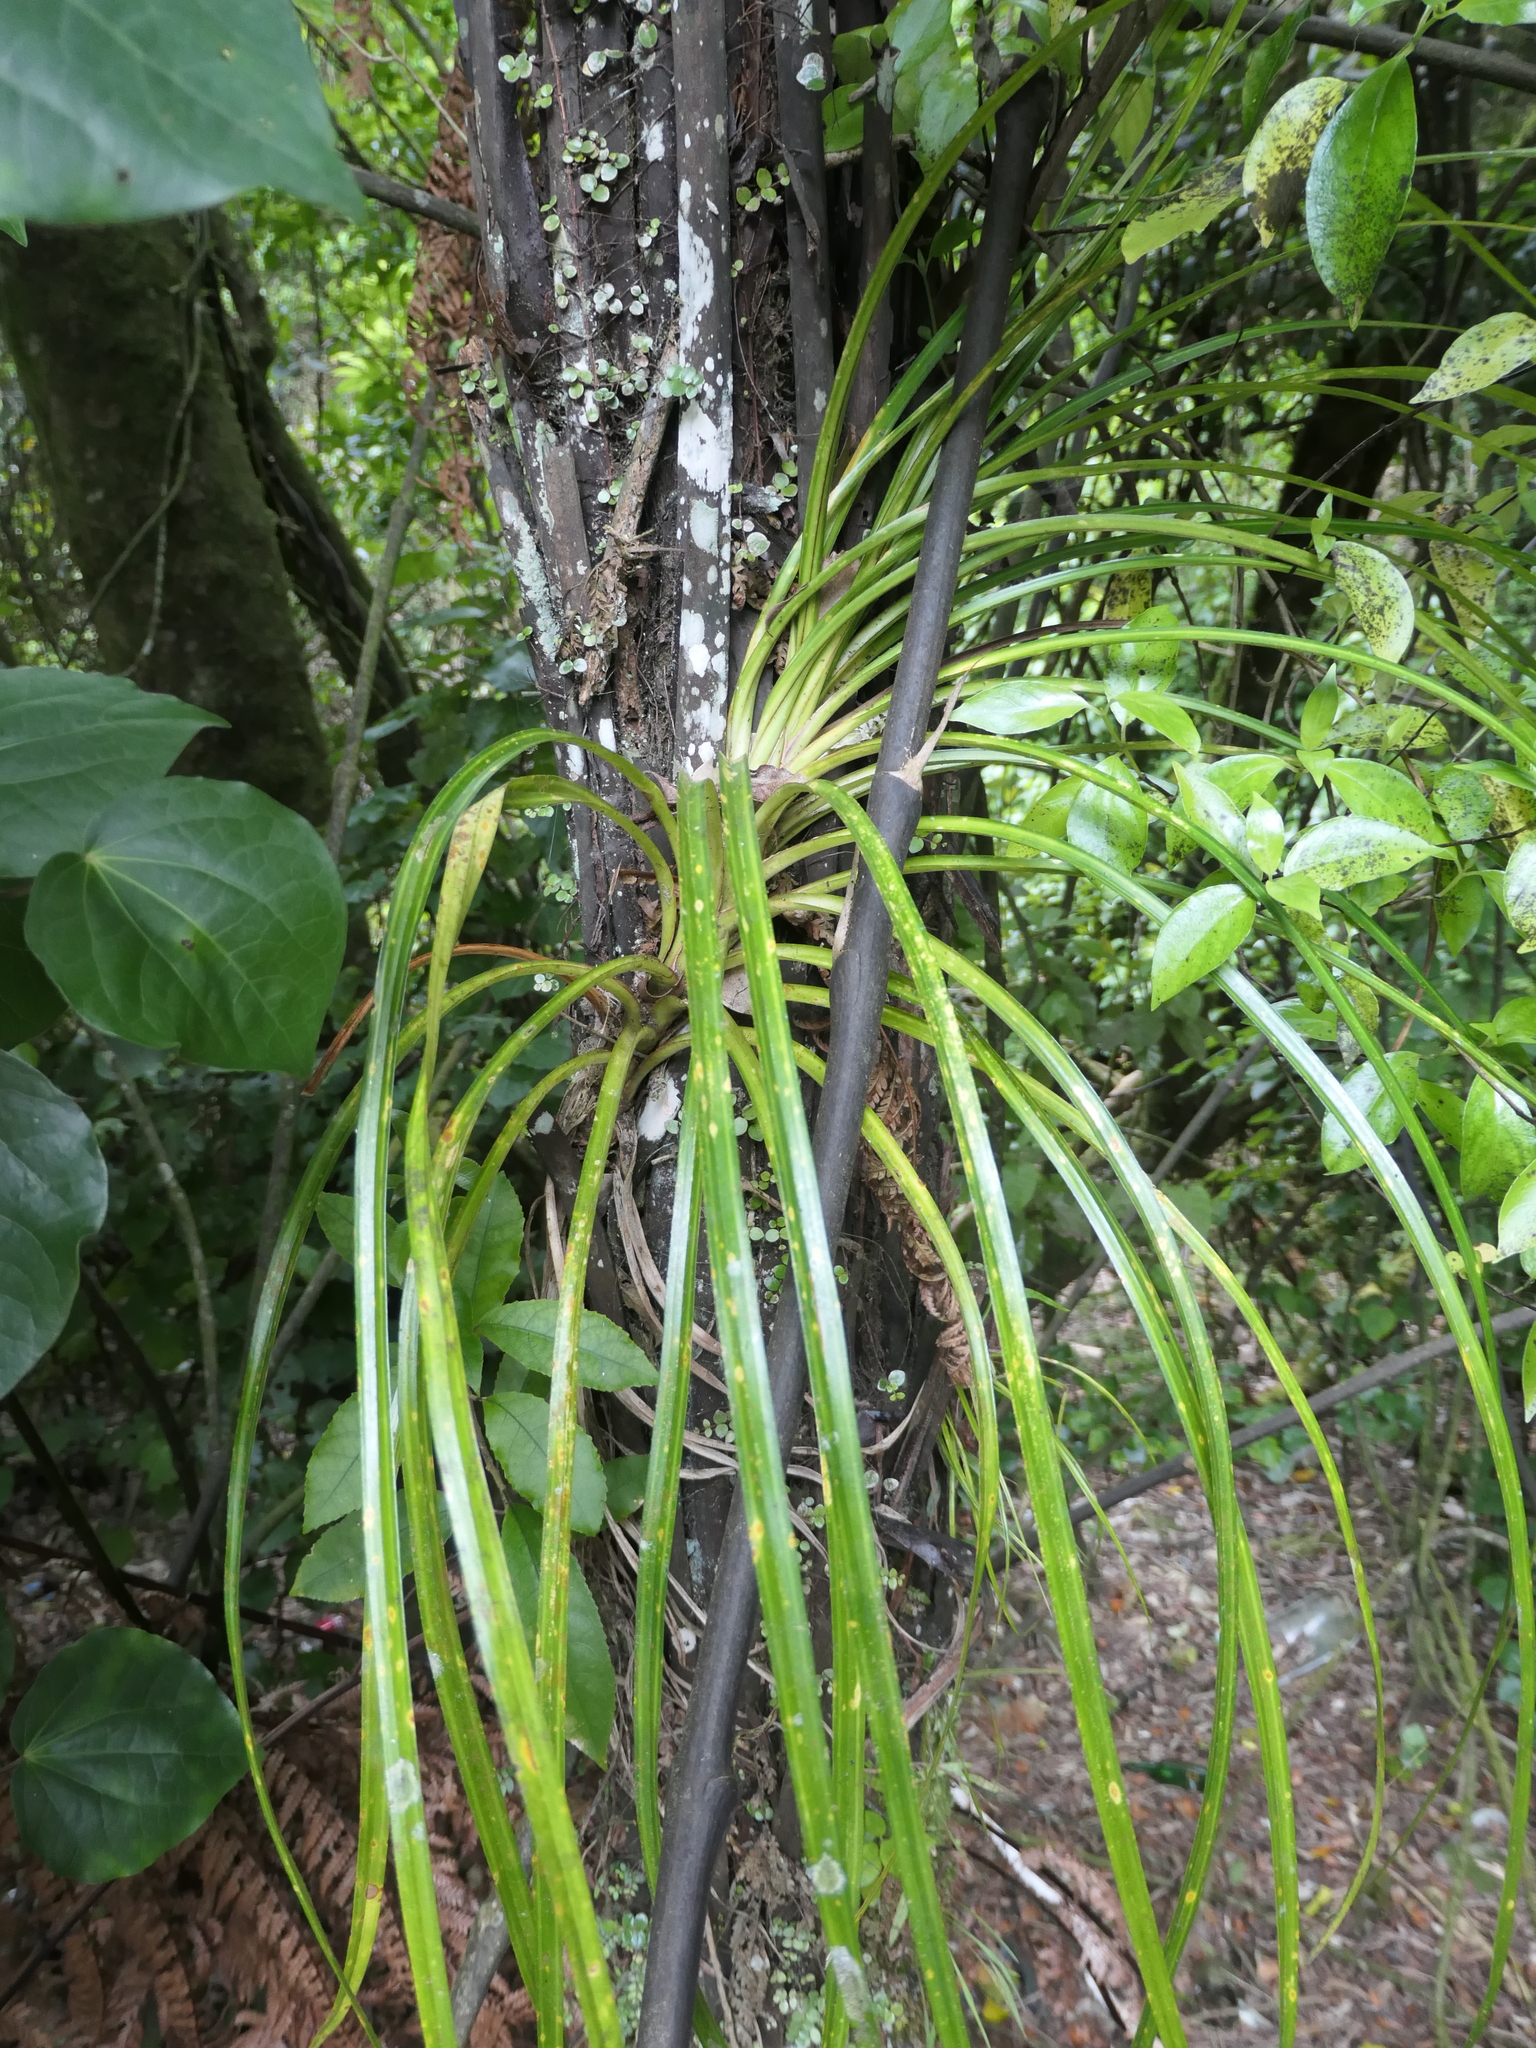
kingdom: Plantae
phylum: Tracheophyta
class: Liliopsida
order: Pandanales
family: Pandanaceae
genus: Freycinetia
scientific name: Freycinetia banksii
